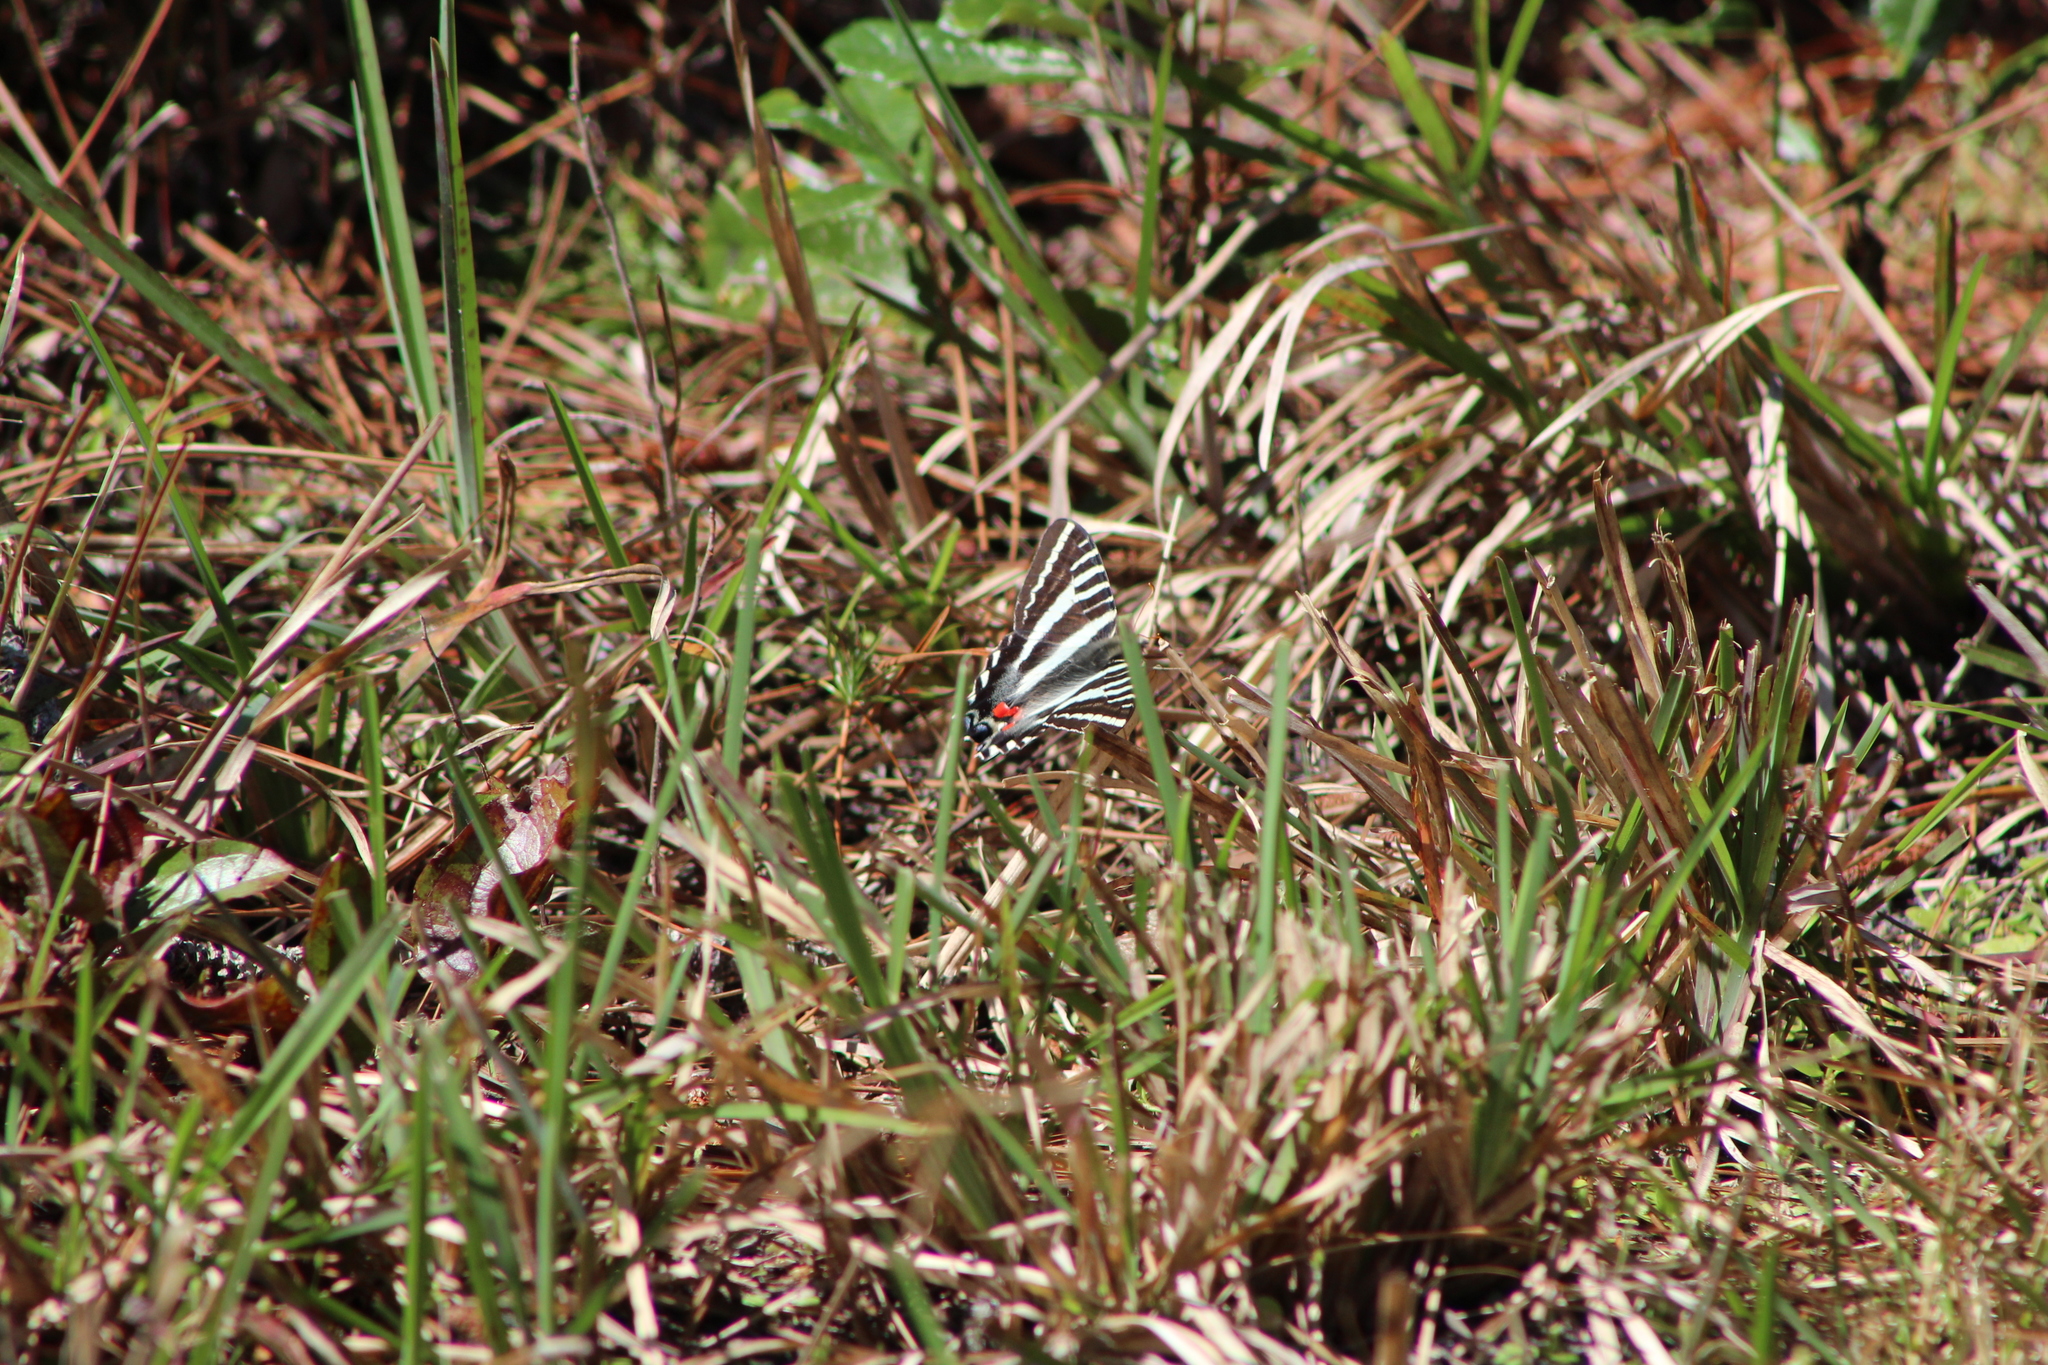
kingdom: Animalia
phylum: Arthropoda
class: Insecta
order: Lepidoptera
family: Papilionidae
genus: Protographium
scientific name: Protographium marcellus
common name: Zebra swallowtail
